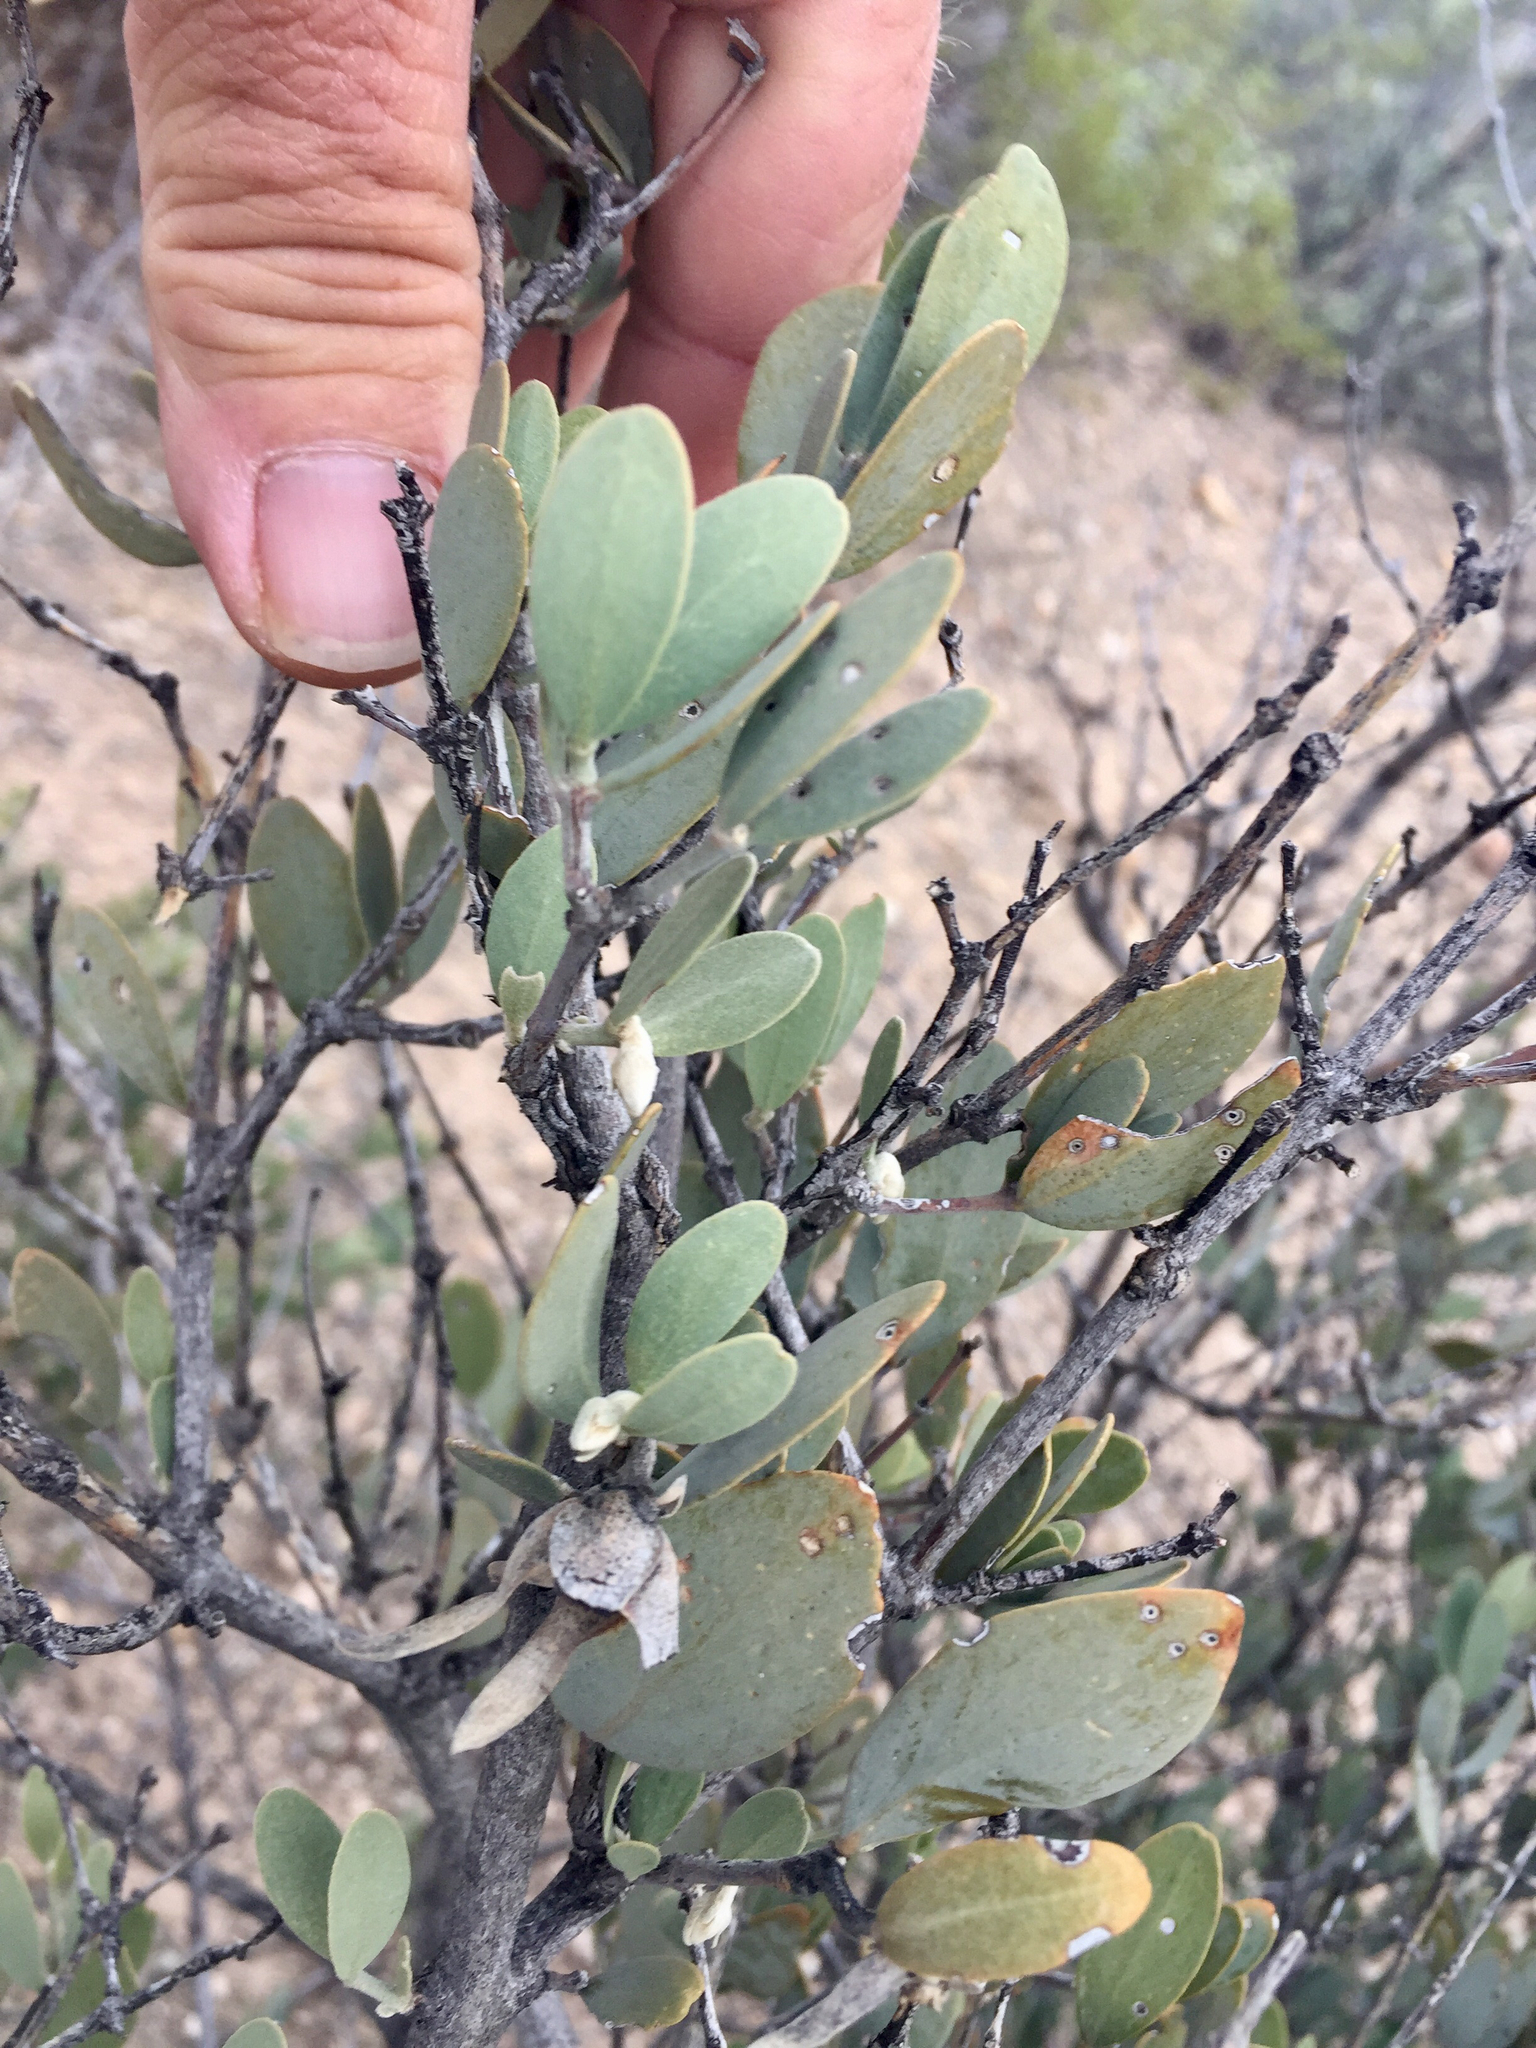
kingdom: Plantae
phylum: Tracheophyta
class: Magnoliopsida
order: Caryophyllales
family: Simmondsiaceae
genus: Simmondsia
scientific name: Simmondsia chinensis
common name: Jojoba
